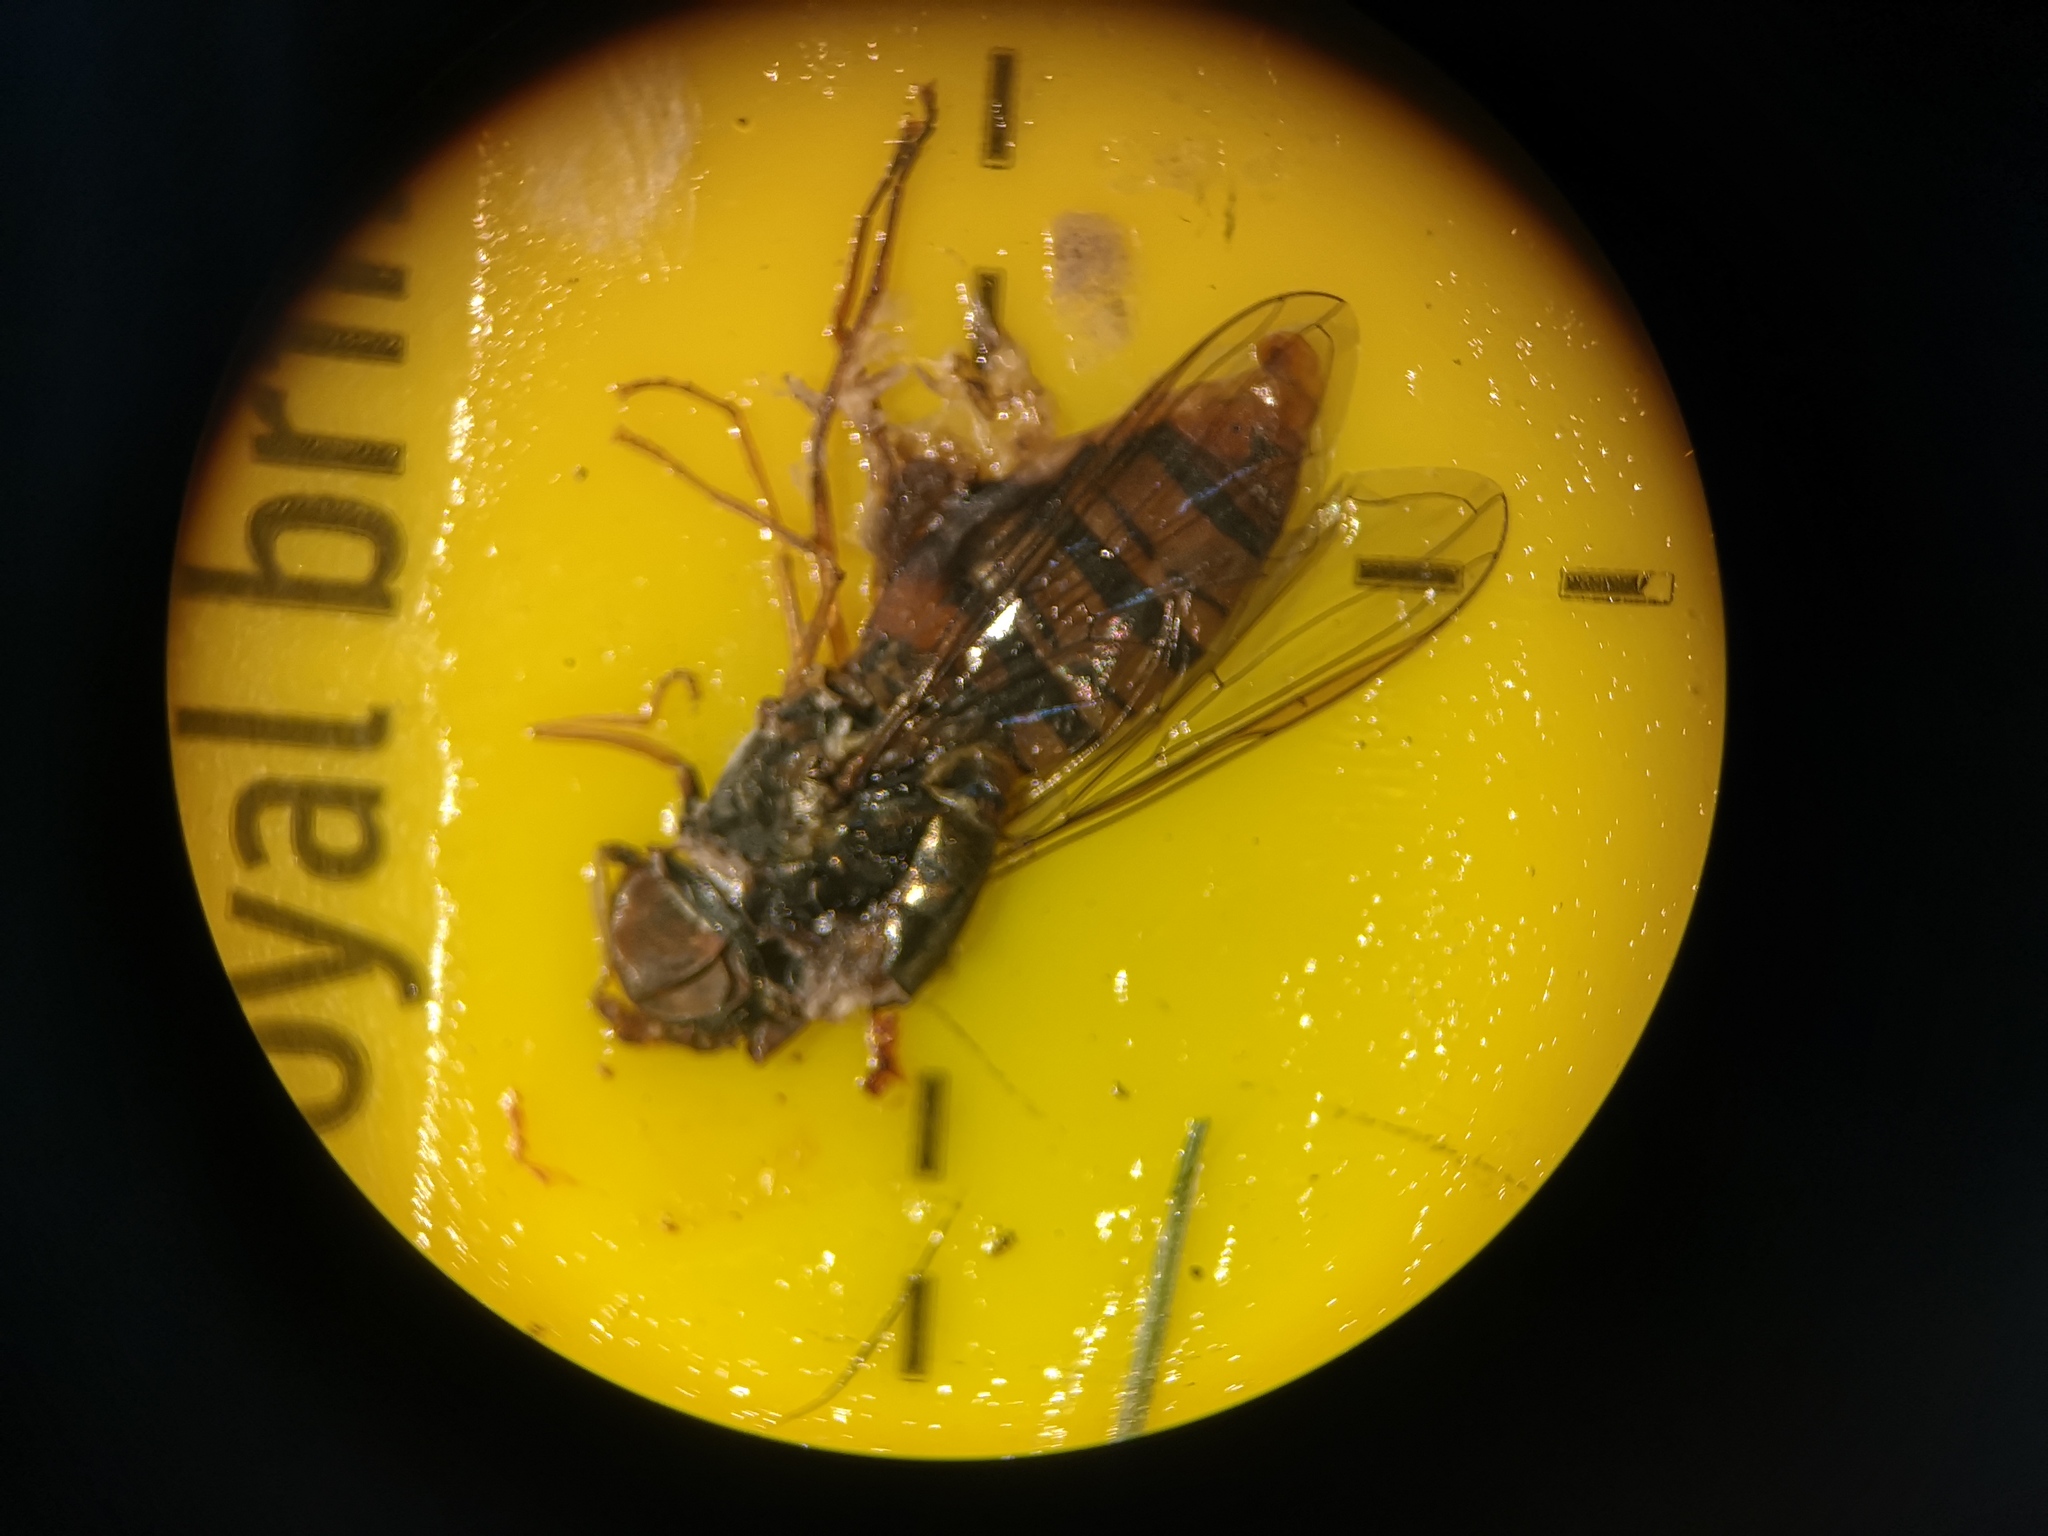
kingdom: Animalia
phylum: Arthropoda
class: Insecta
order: Diptera
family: Syrphidae
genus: Episyrphus
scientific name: Episyrphus balteatus
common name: Marmalade hoverfly
